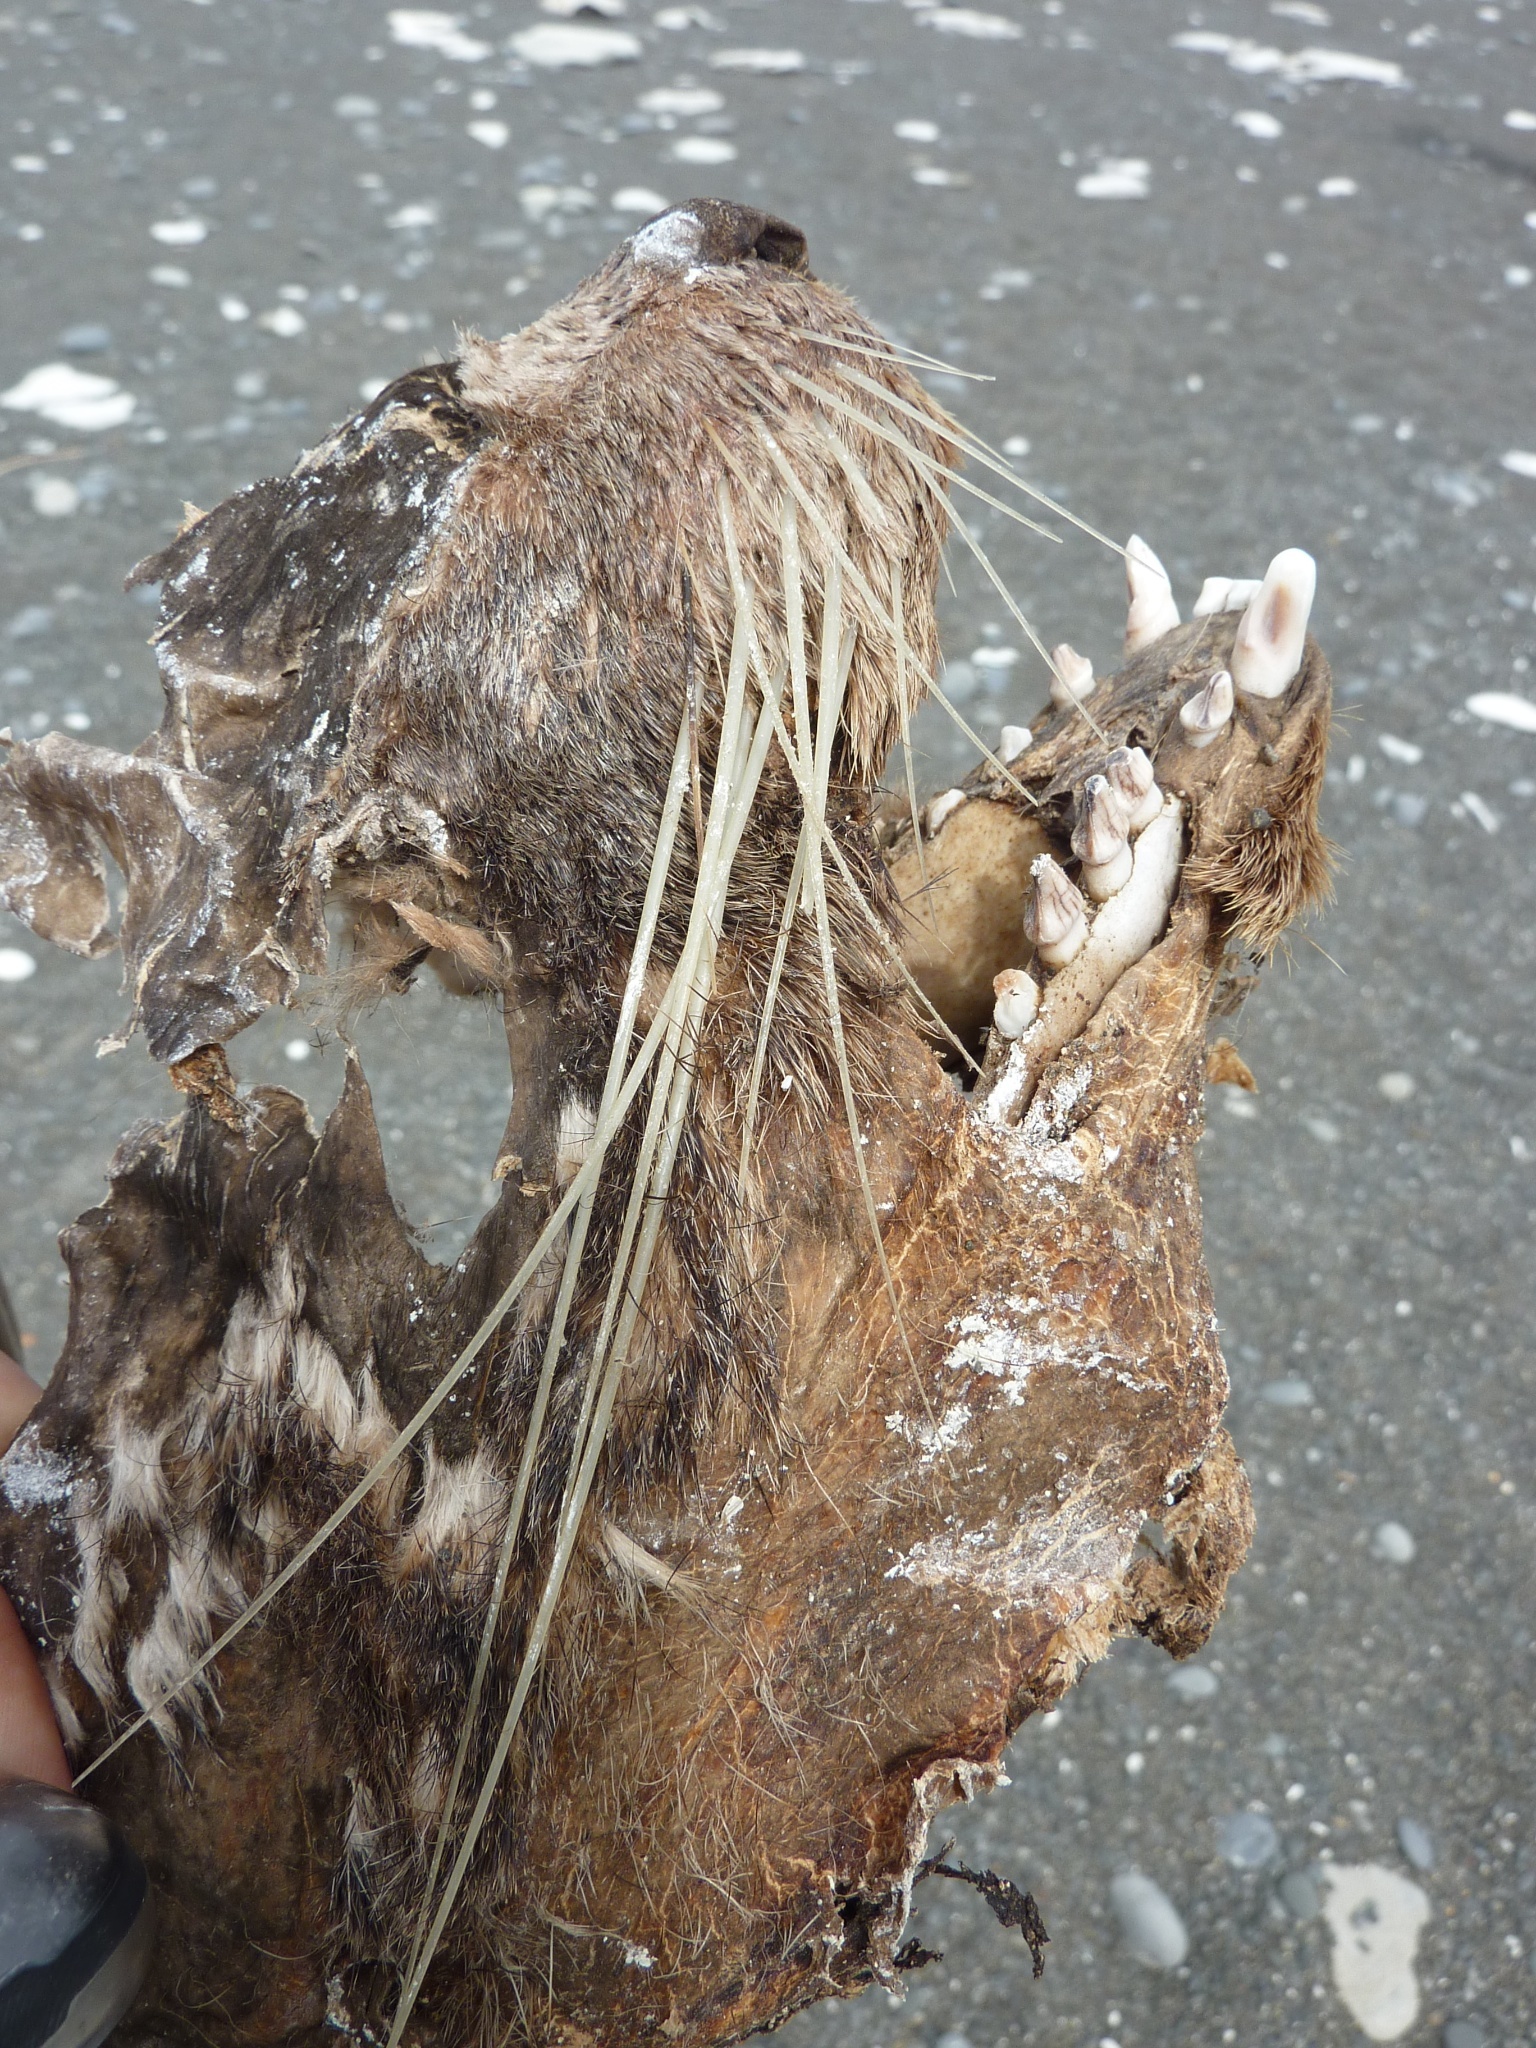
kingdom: Animalia
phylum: Chordata
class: Mammalia
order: Carnivora
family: Otariidae
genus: Arctocephalus
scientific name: Arctocephalus forsteri
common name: New zealand fur seal
